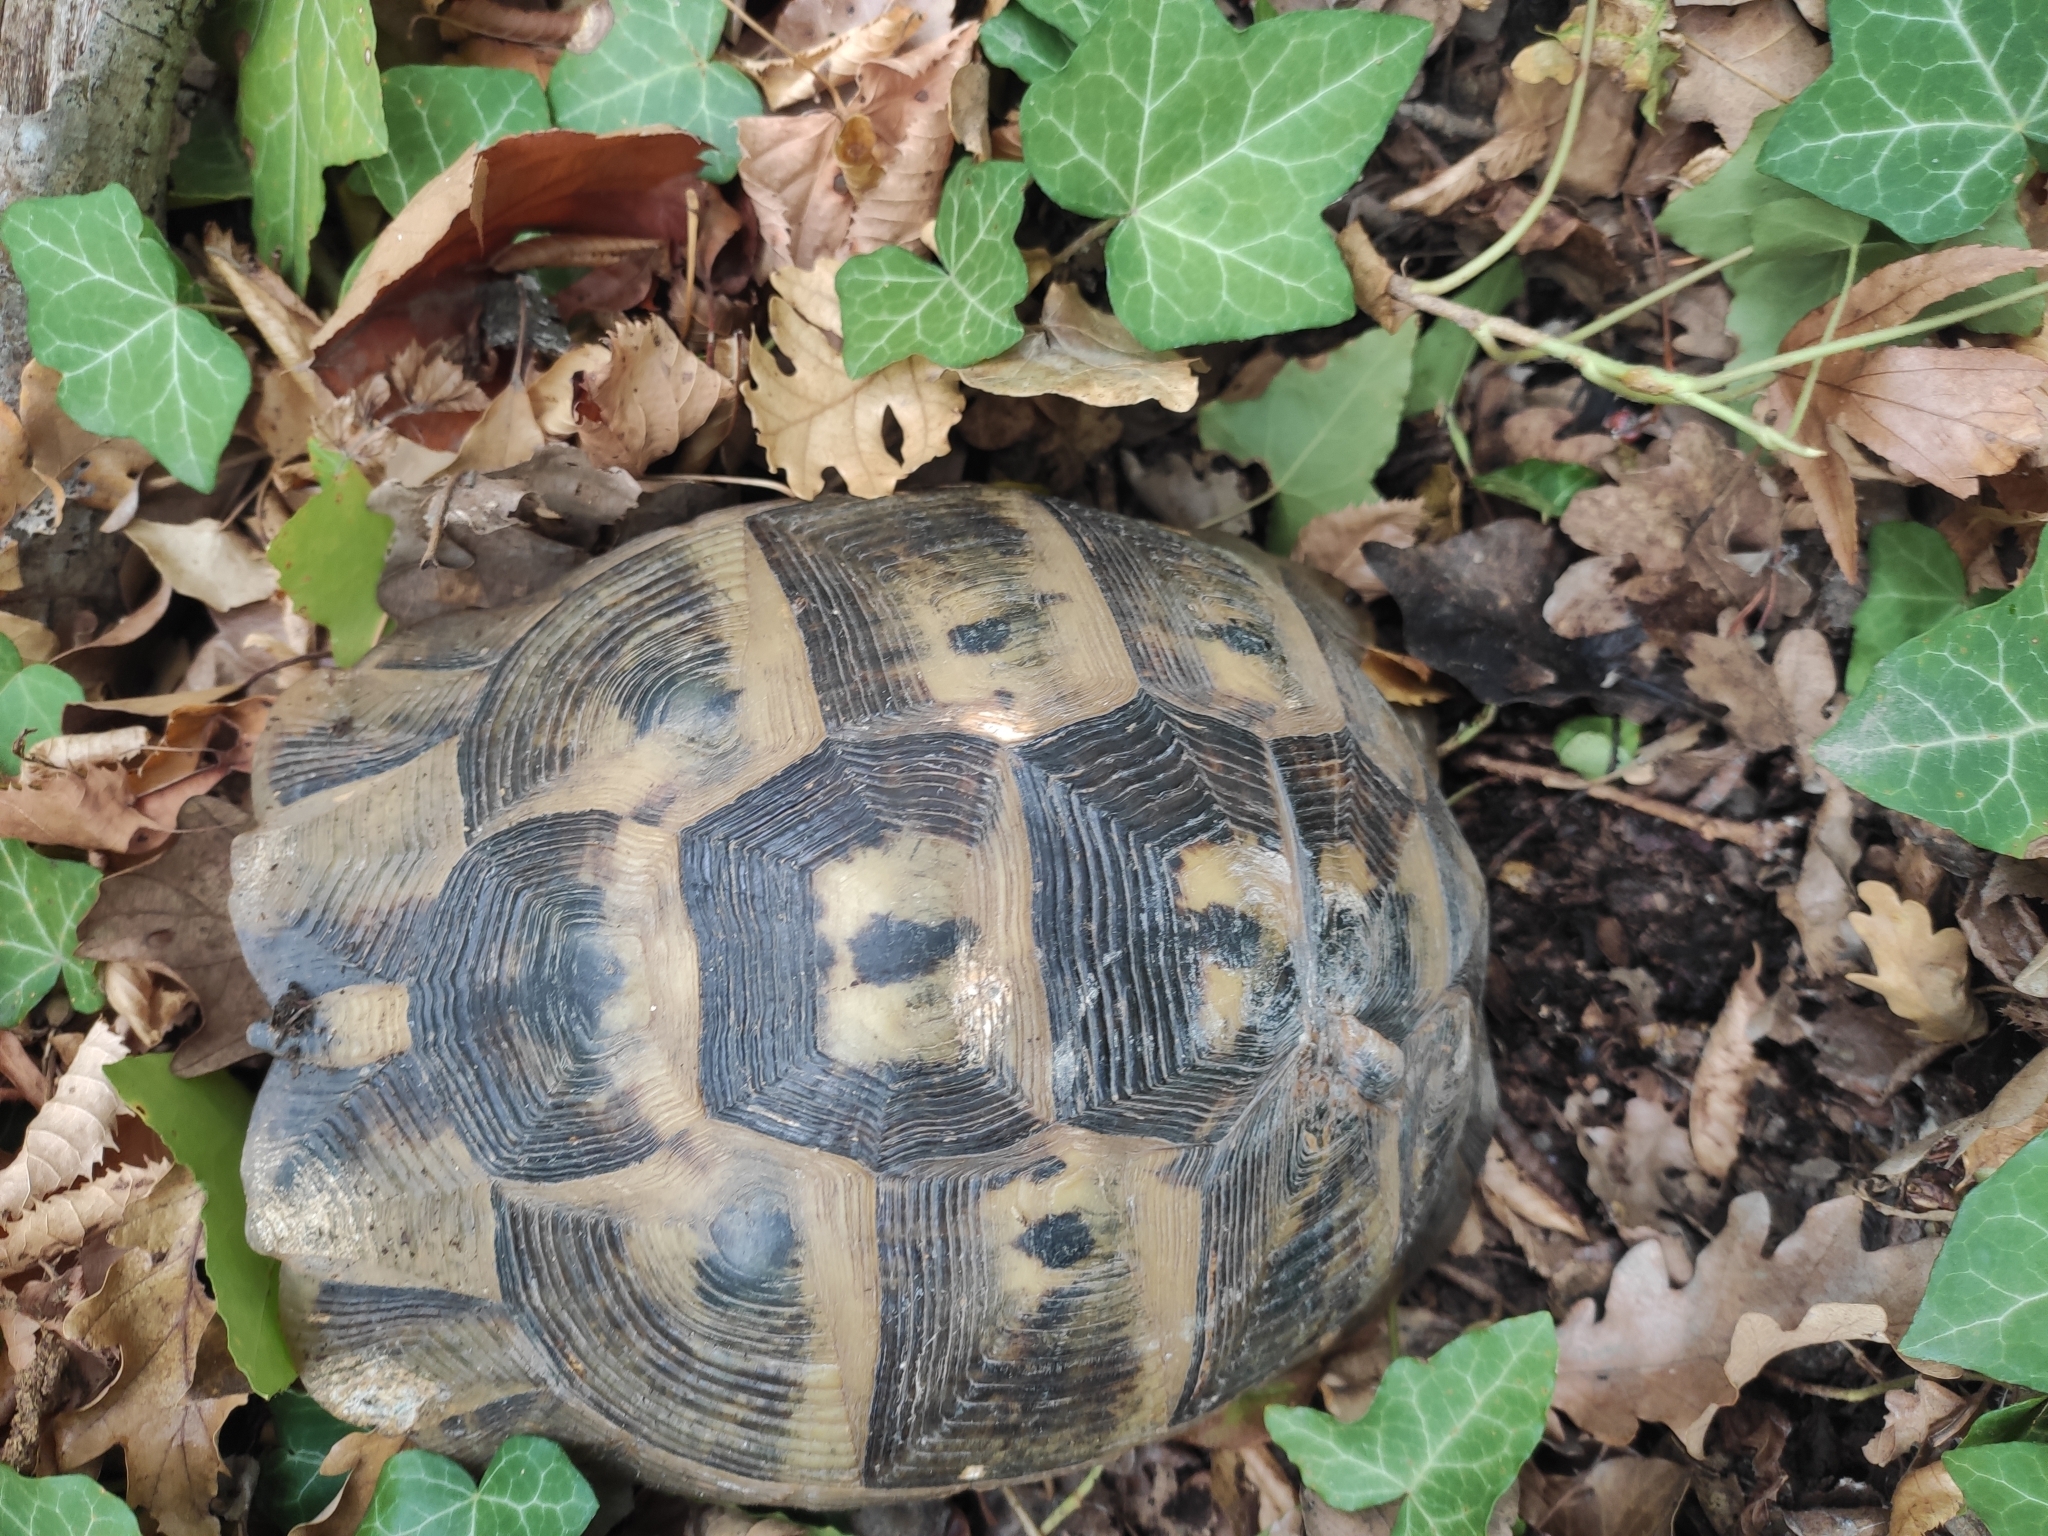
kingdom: Animalia
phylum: Chordata
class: Testudines
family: Testudinidae
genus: Testudo
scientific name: Testudo graeca
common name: Common tortoise
